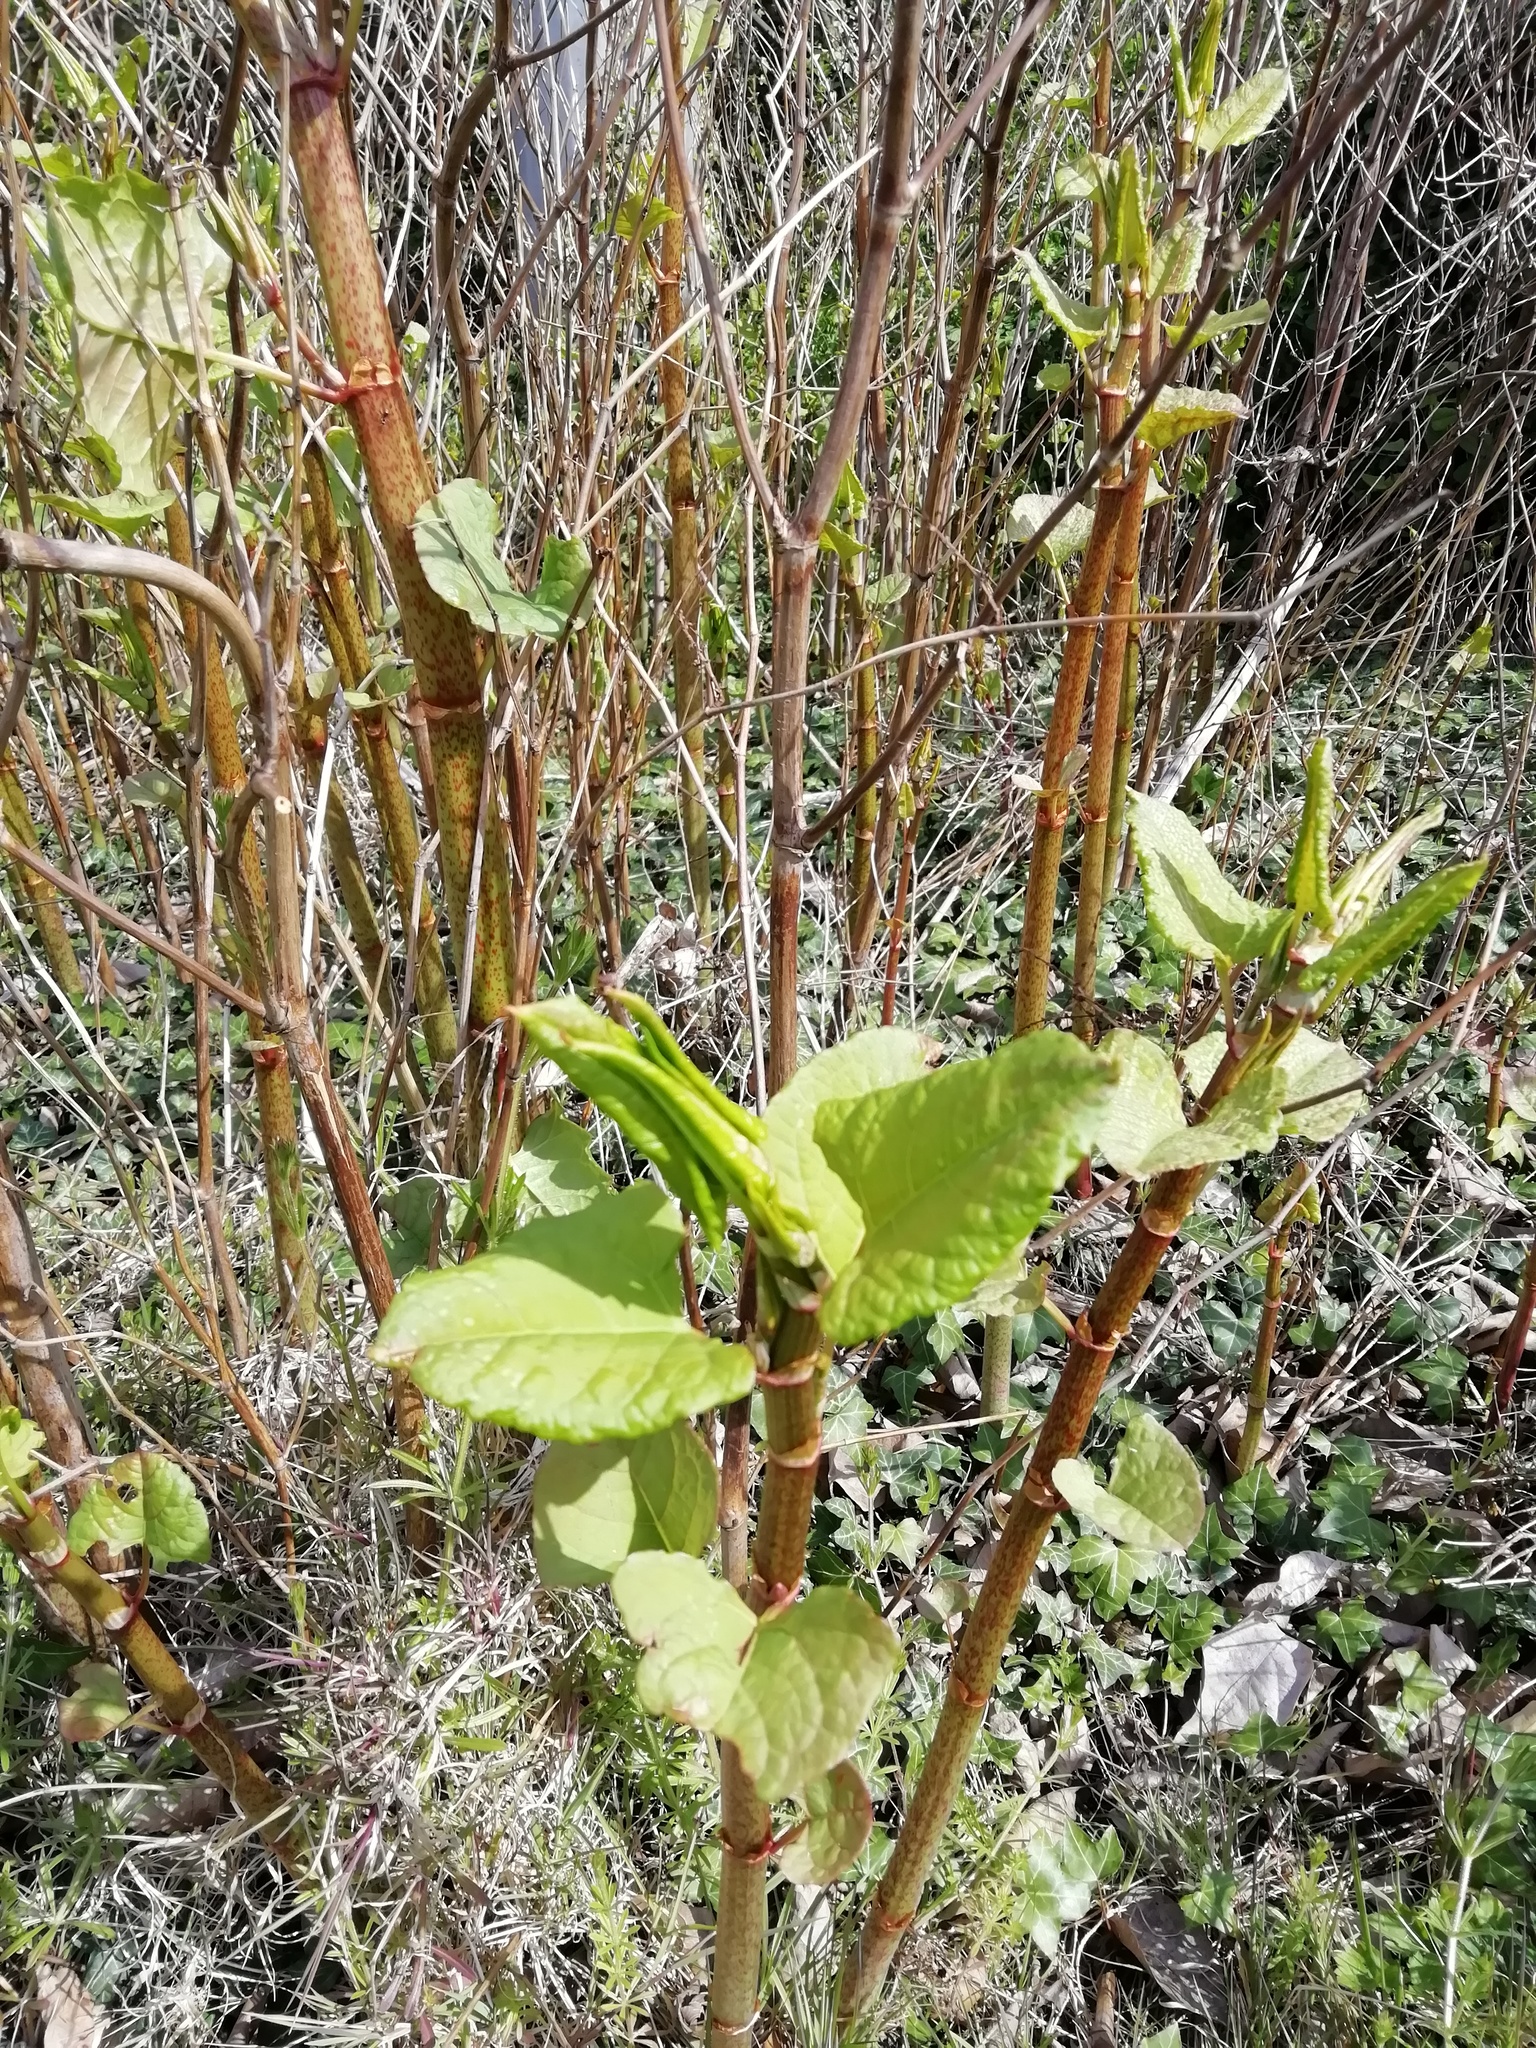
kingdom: Plantae
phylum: Tracheophyta
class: Magnoliopsida
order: Caryophyllales
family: Polygonaceae
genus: Reynoutria
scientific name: Reynoutria japonica
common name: Japanese knotweed
